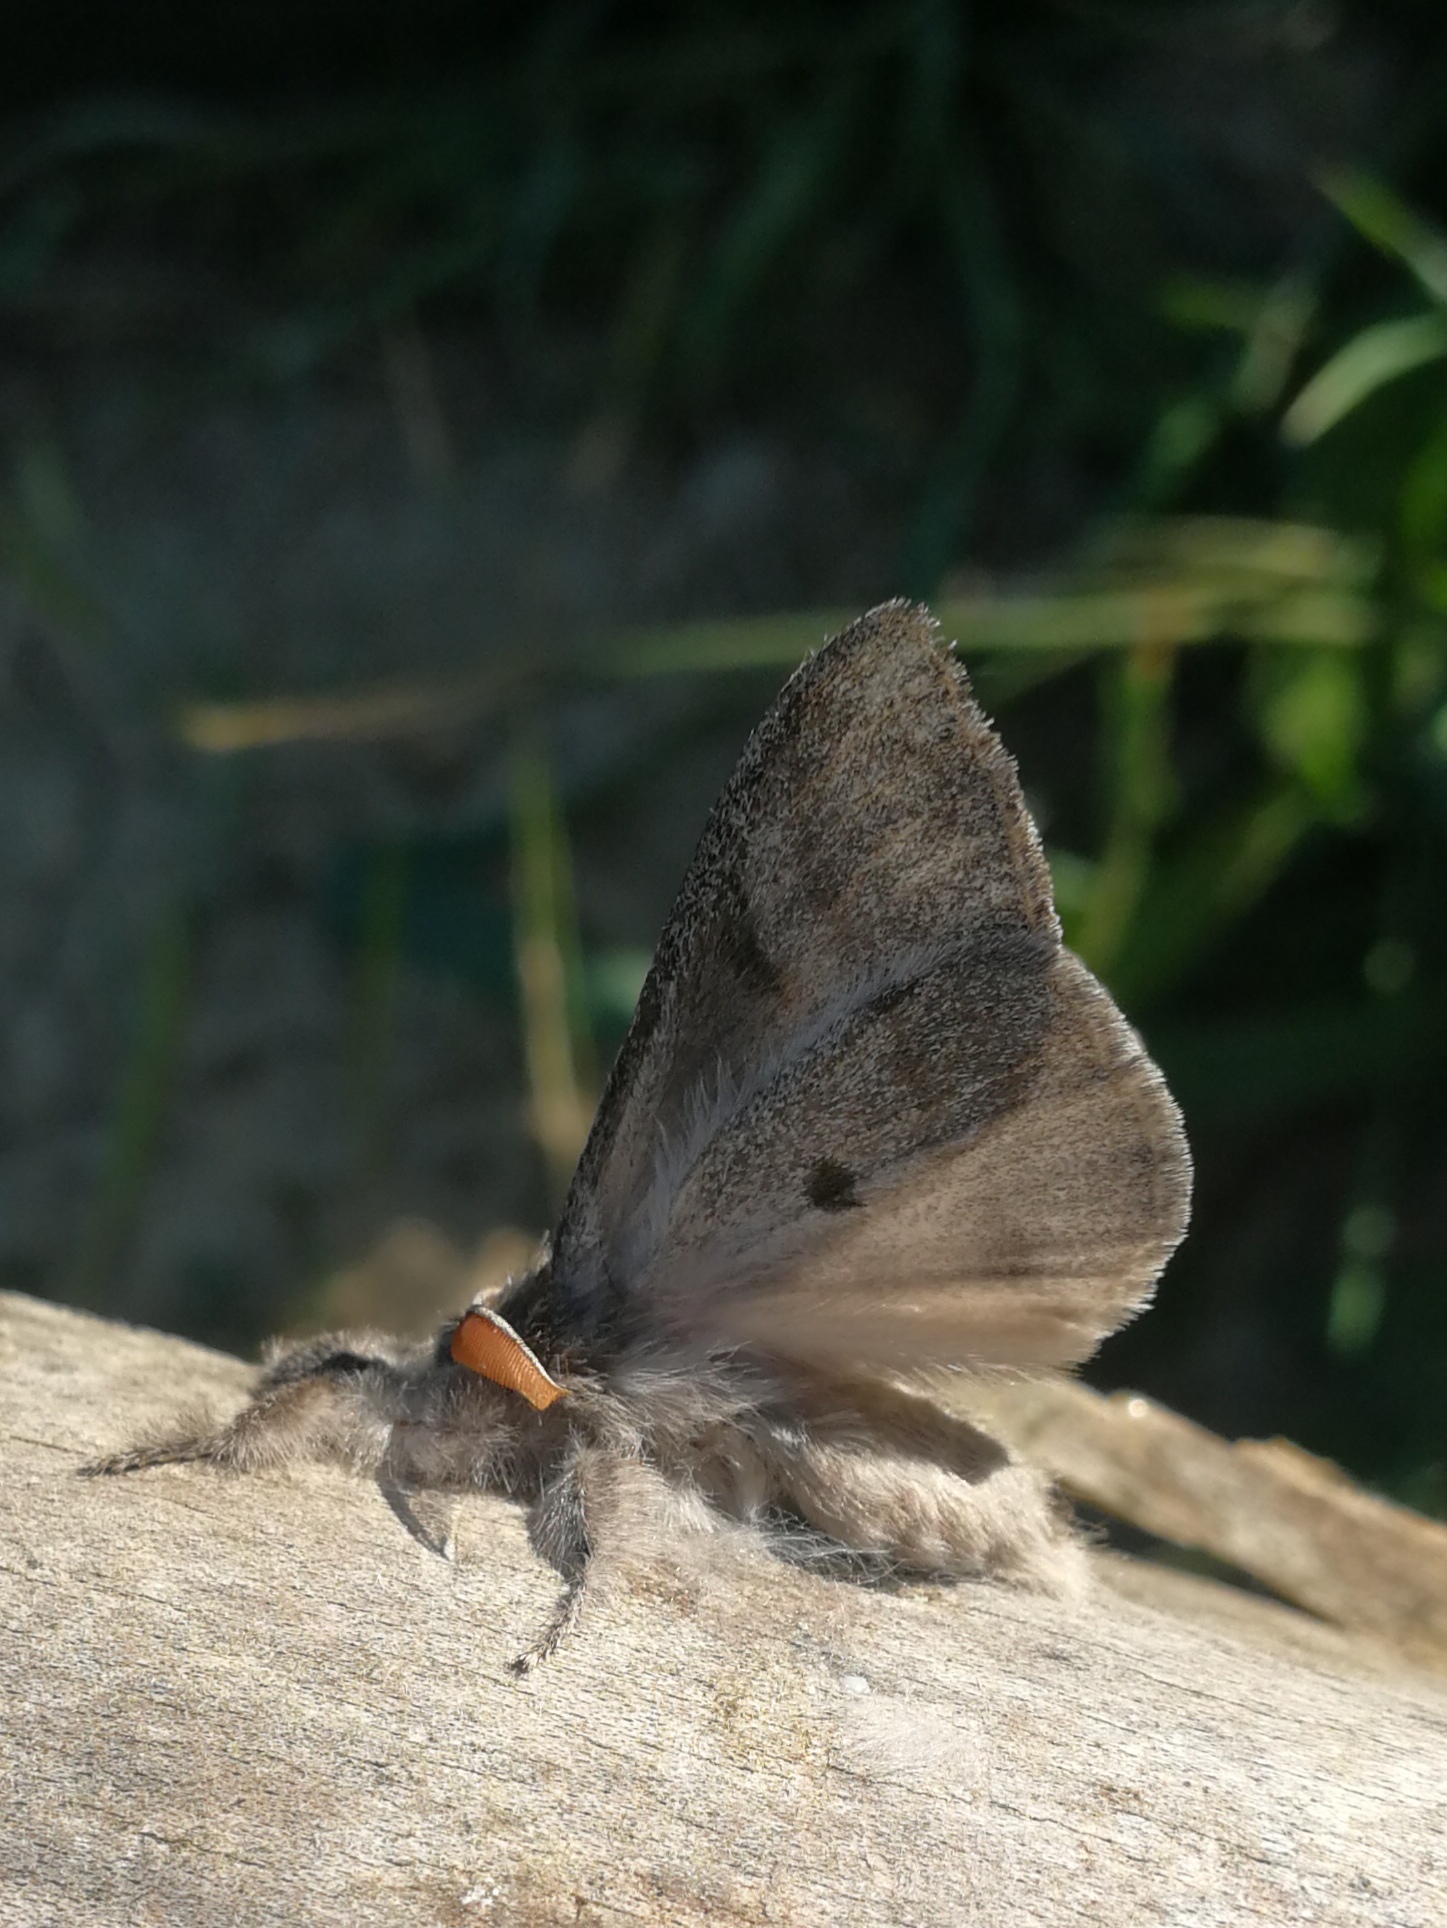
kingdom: Animalia
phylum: Arthropoda
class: Insecta
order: Lepidoptera
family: Erebidae
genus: Calliteara
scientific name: Calliteara pudibunda
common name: Pale tussock
